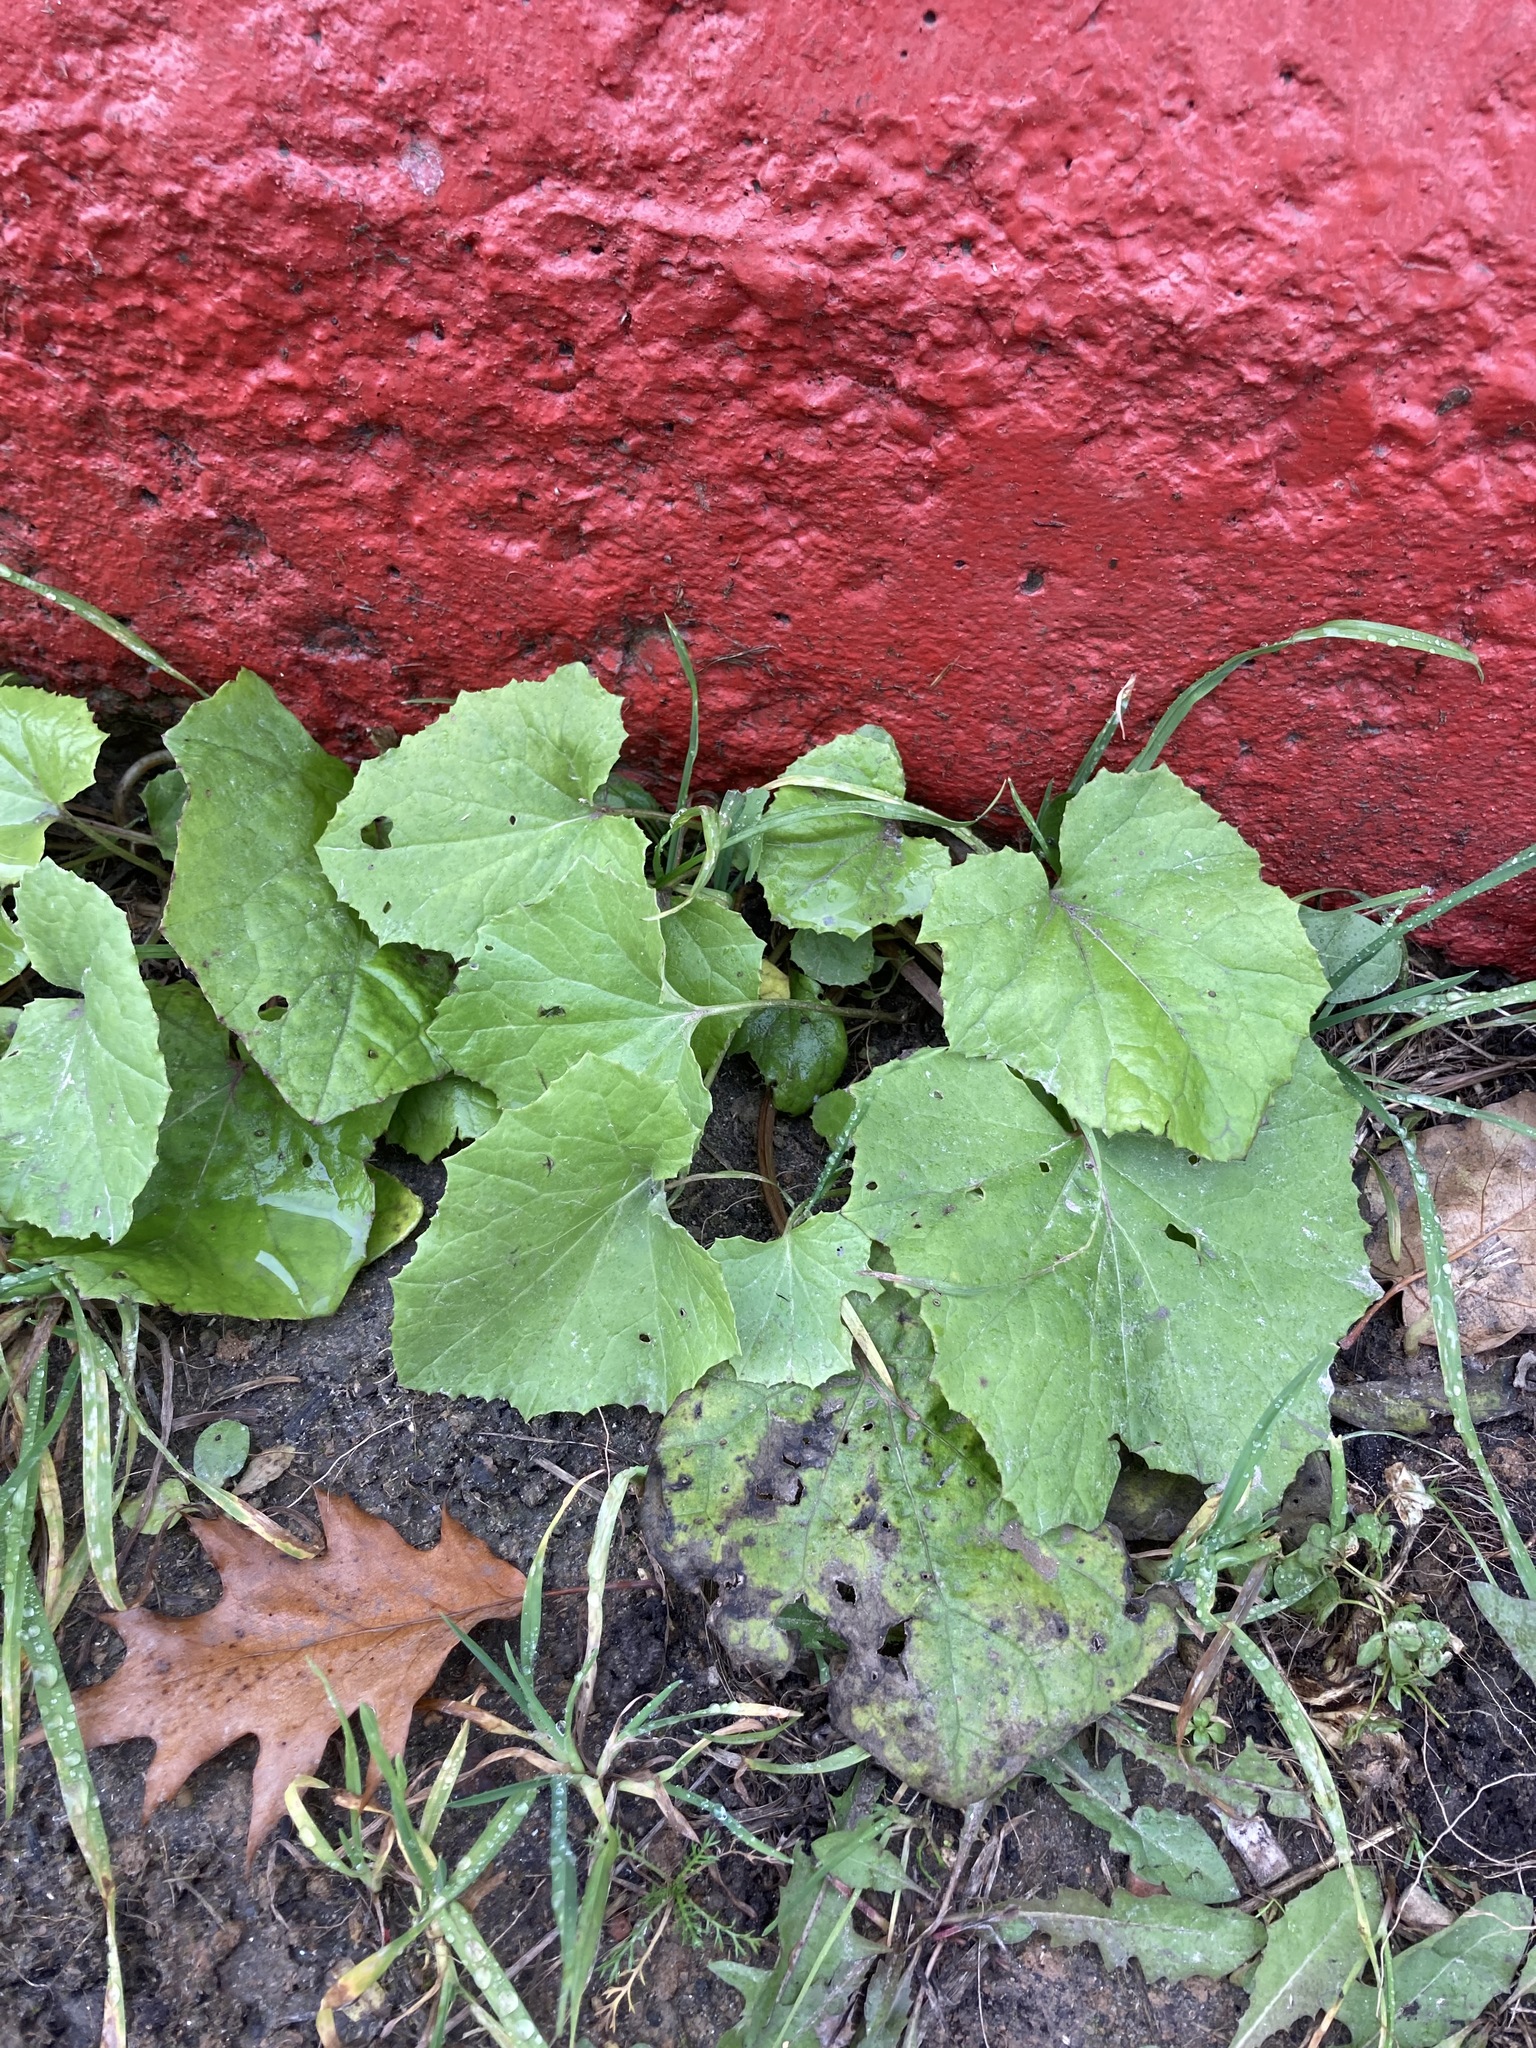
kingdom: Plantae
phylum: Tracheophyta
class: Magnoliopsida
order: Asterales
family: Asteraceae
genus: Tussilago
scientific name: Tussilago farfara
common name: Coltsfoot
